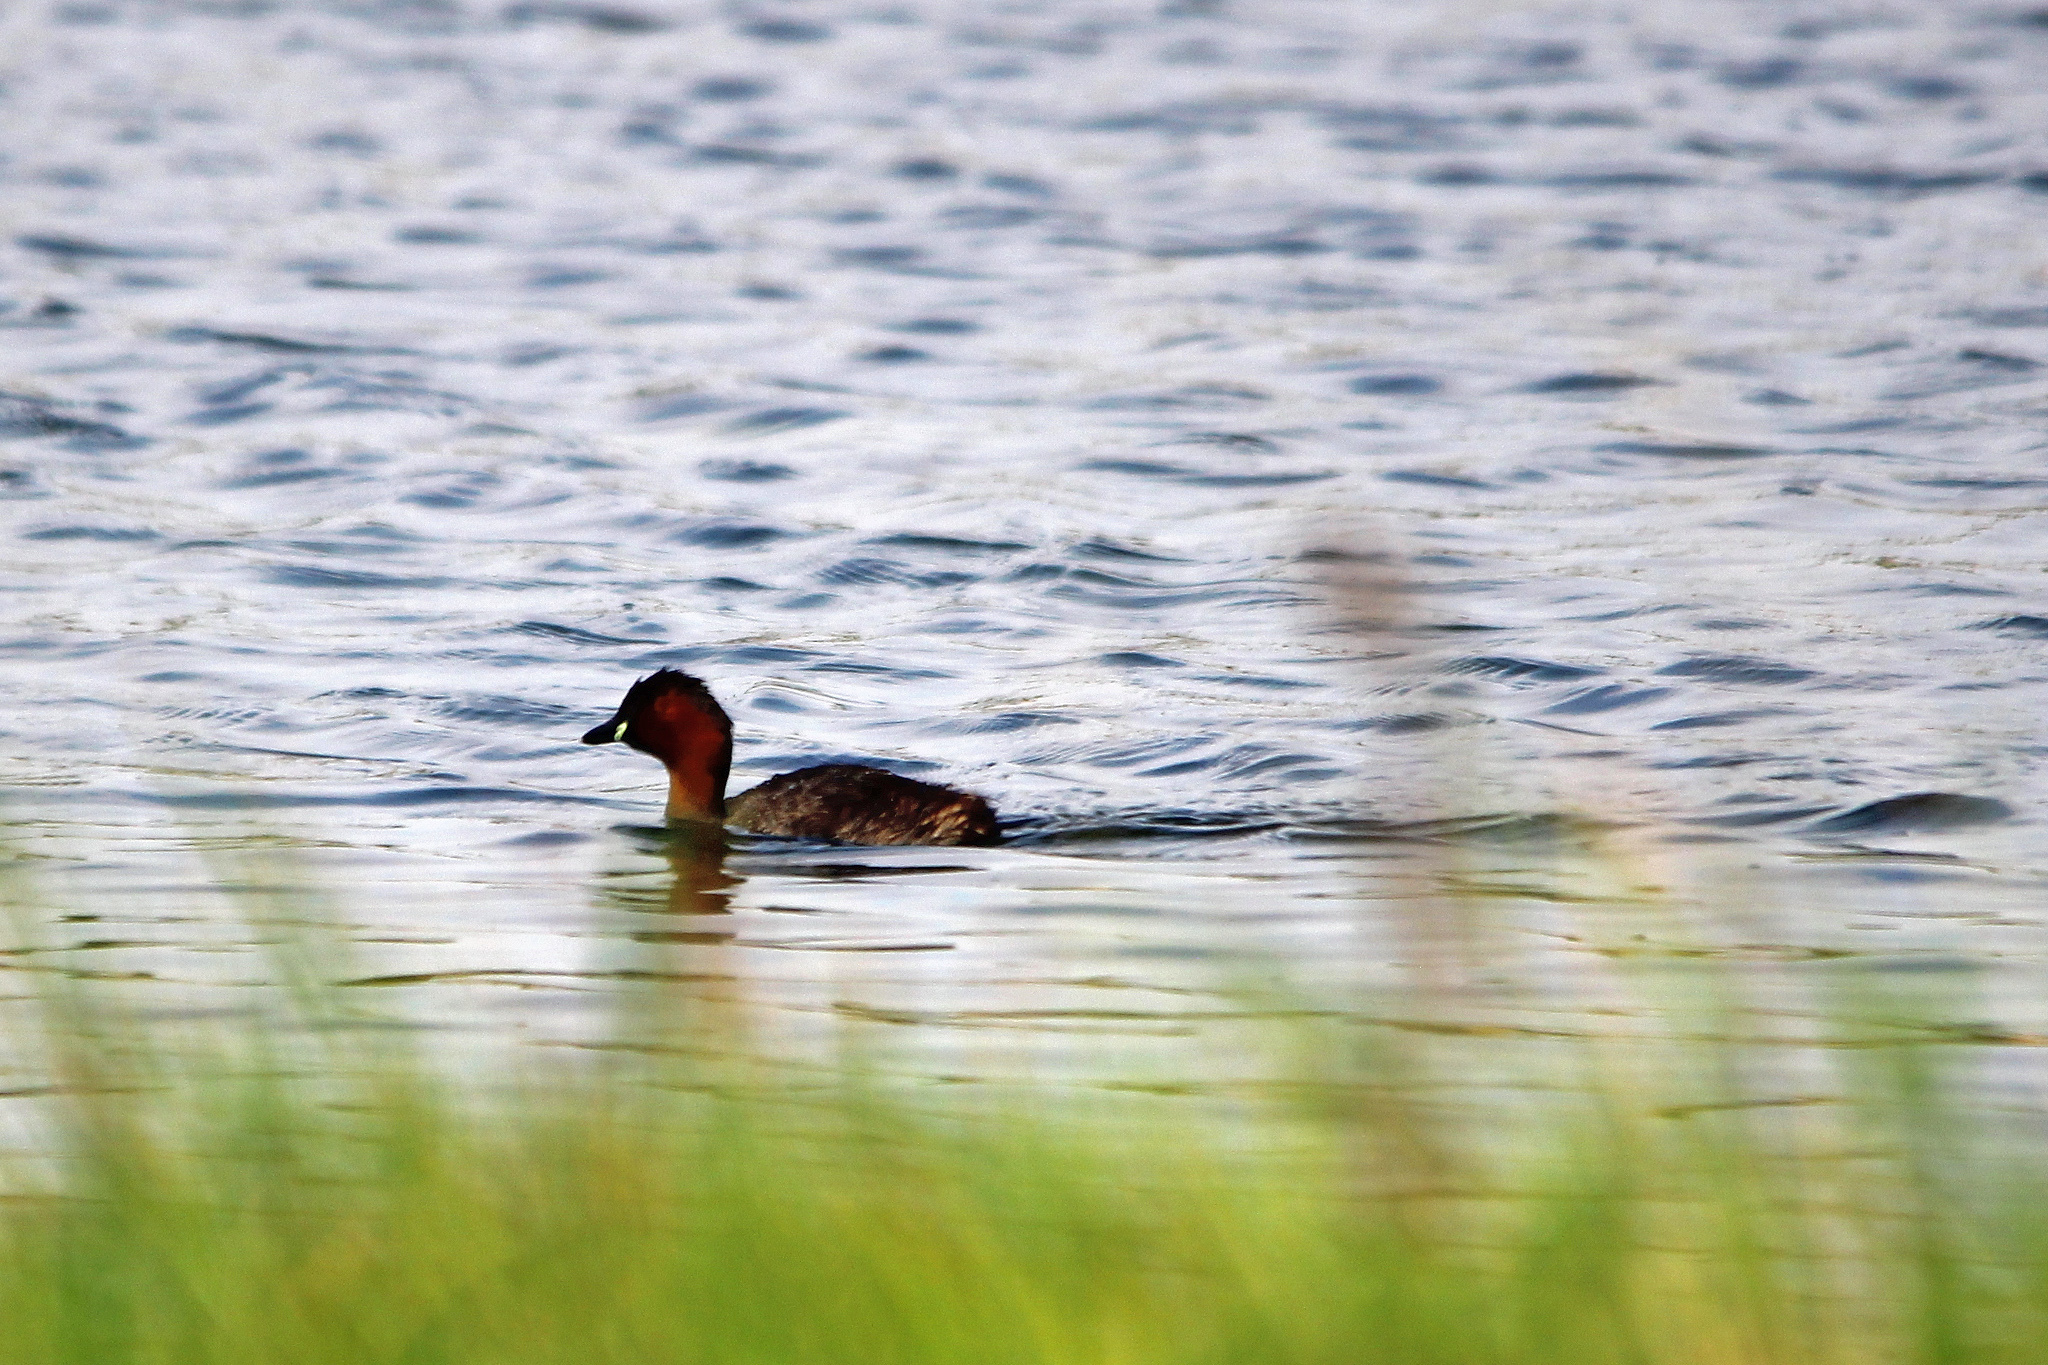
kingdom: Animalia
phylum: Chordata
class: Aves
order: Podicipediformes
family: Podicipedidae
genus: Tachybaptus
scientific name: Tachybaptus ruficollis
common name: Little grebe
